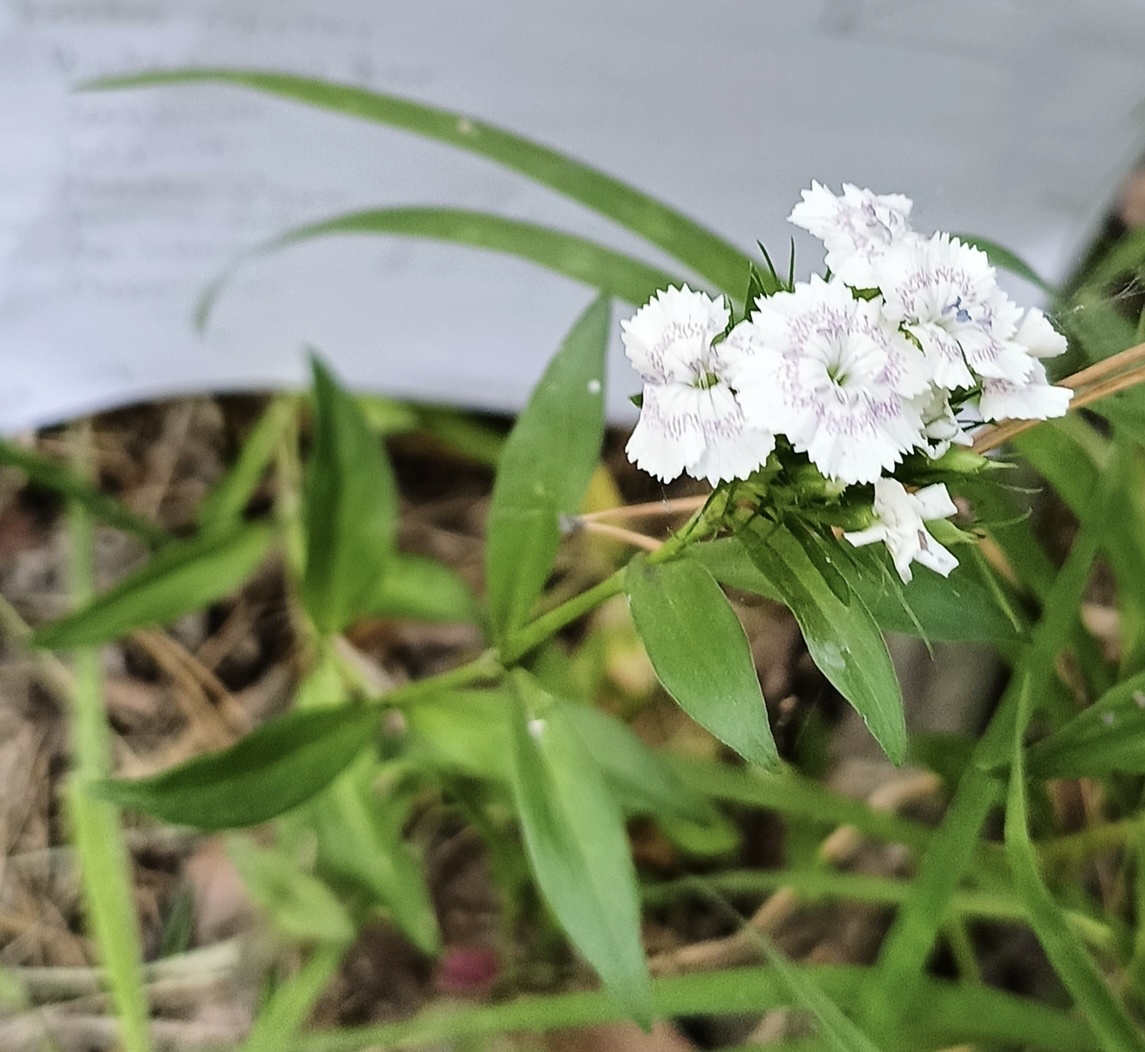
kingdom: Plantae
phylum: Tracheophyta
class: Magnoliopsida
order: Caryophyllales
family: Caryophyllaceae
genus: Dianthus
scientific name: Dianthus barbatus
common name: Sweet-william
